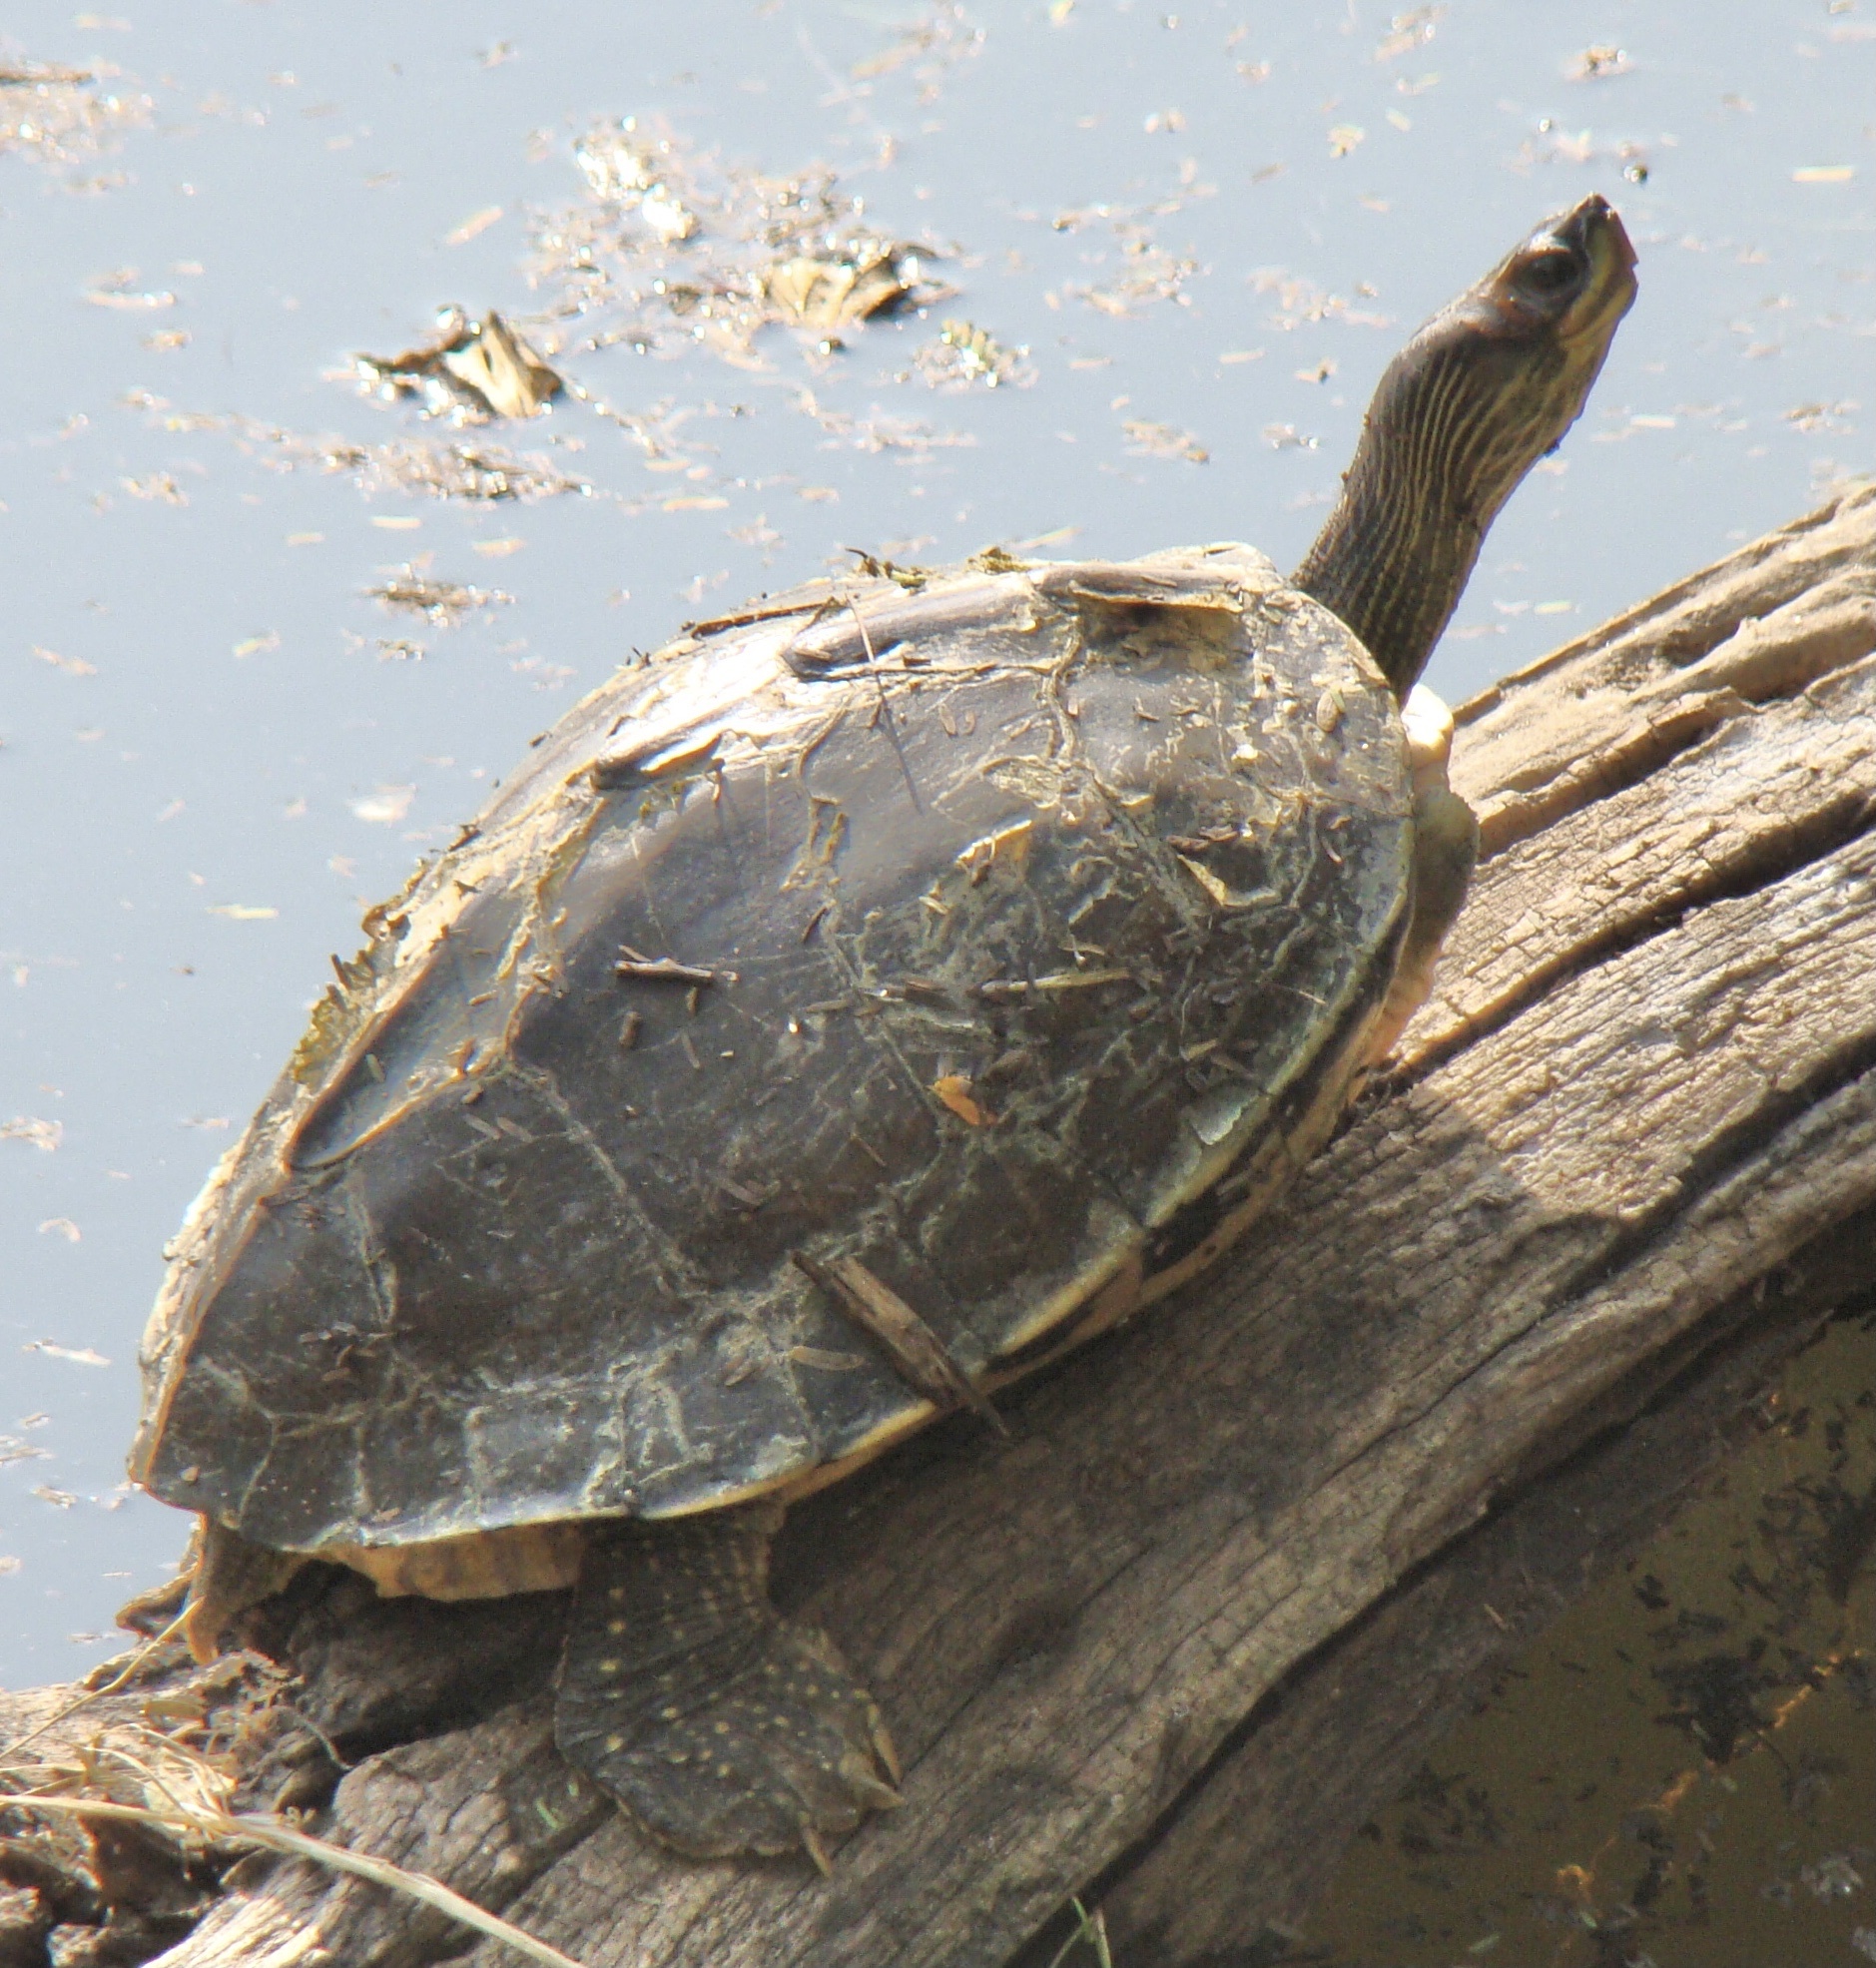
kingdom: Animalia
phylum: Chordata
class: Testudines
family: Geoemydidae
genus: Pangshura
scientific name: Pangshura tecta
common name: Indian roofed turtle
